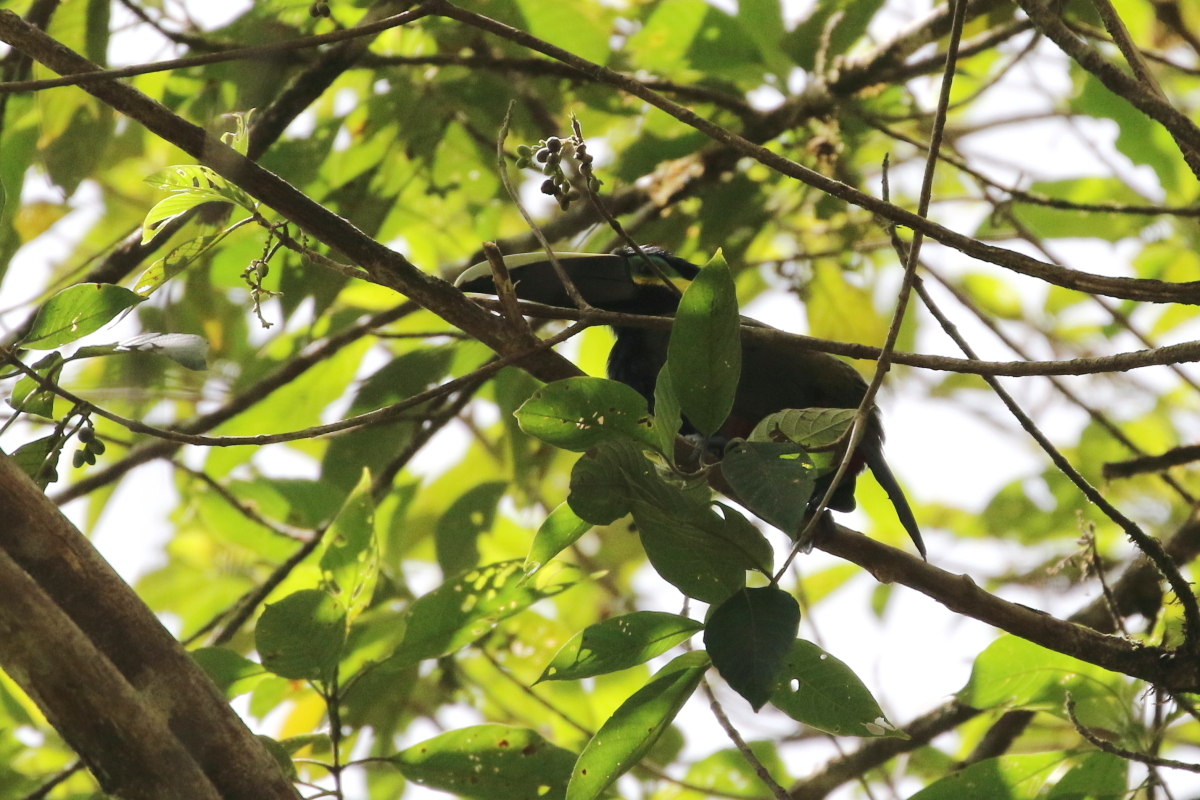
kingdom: Animalia
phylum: Chordata
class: Aves
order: Piciformes
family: Ramphastidae
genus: Selenidera
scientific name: Selenidera spectabilis
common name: Yellow-eared toucanet
